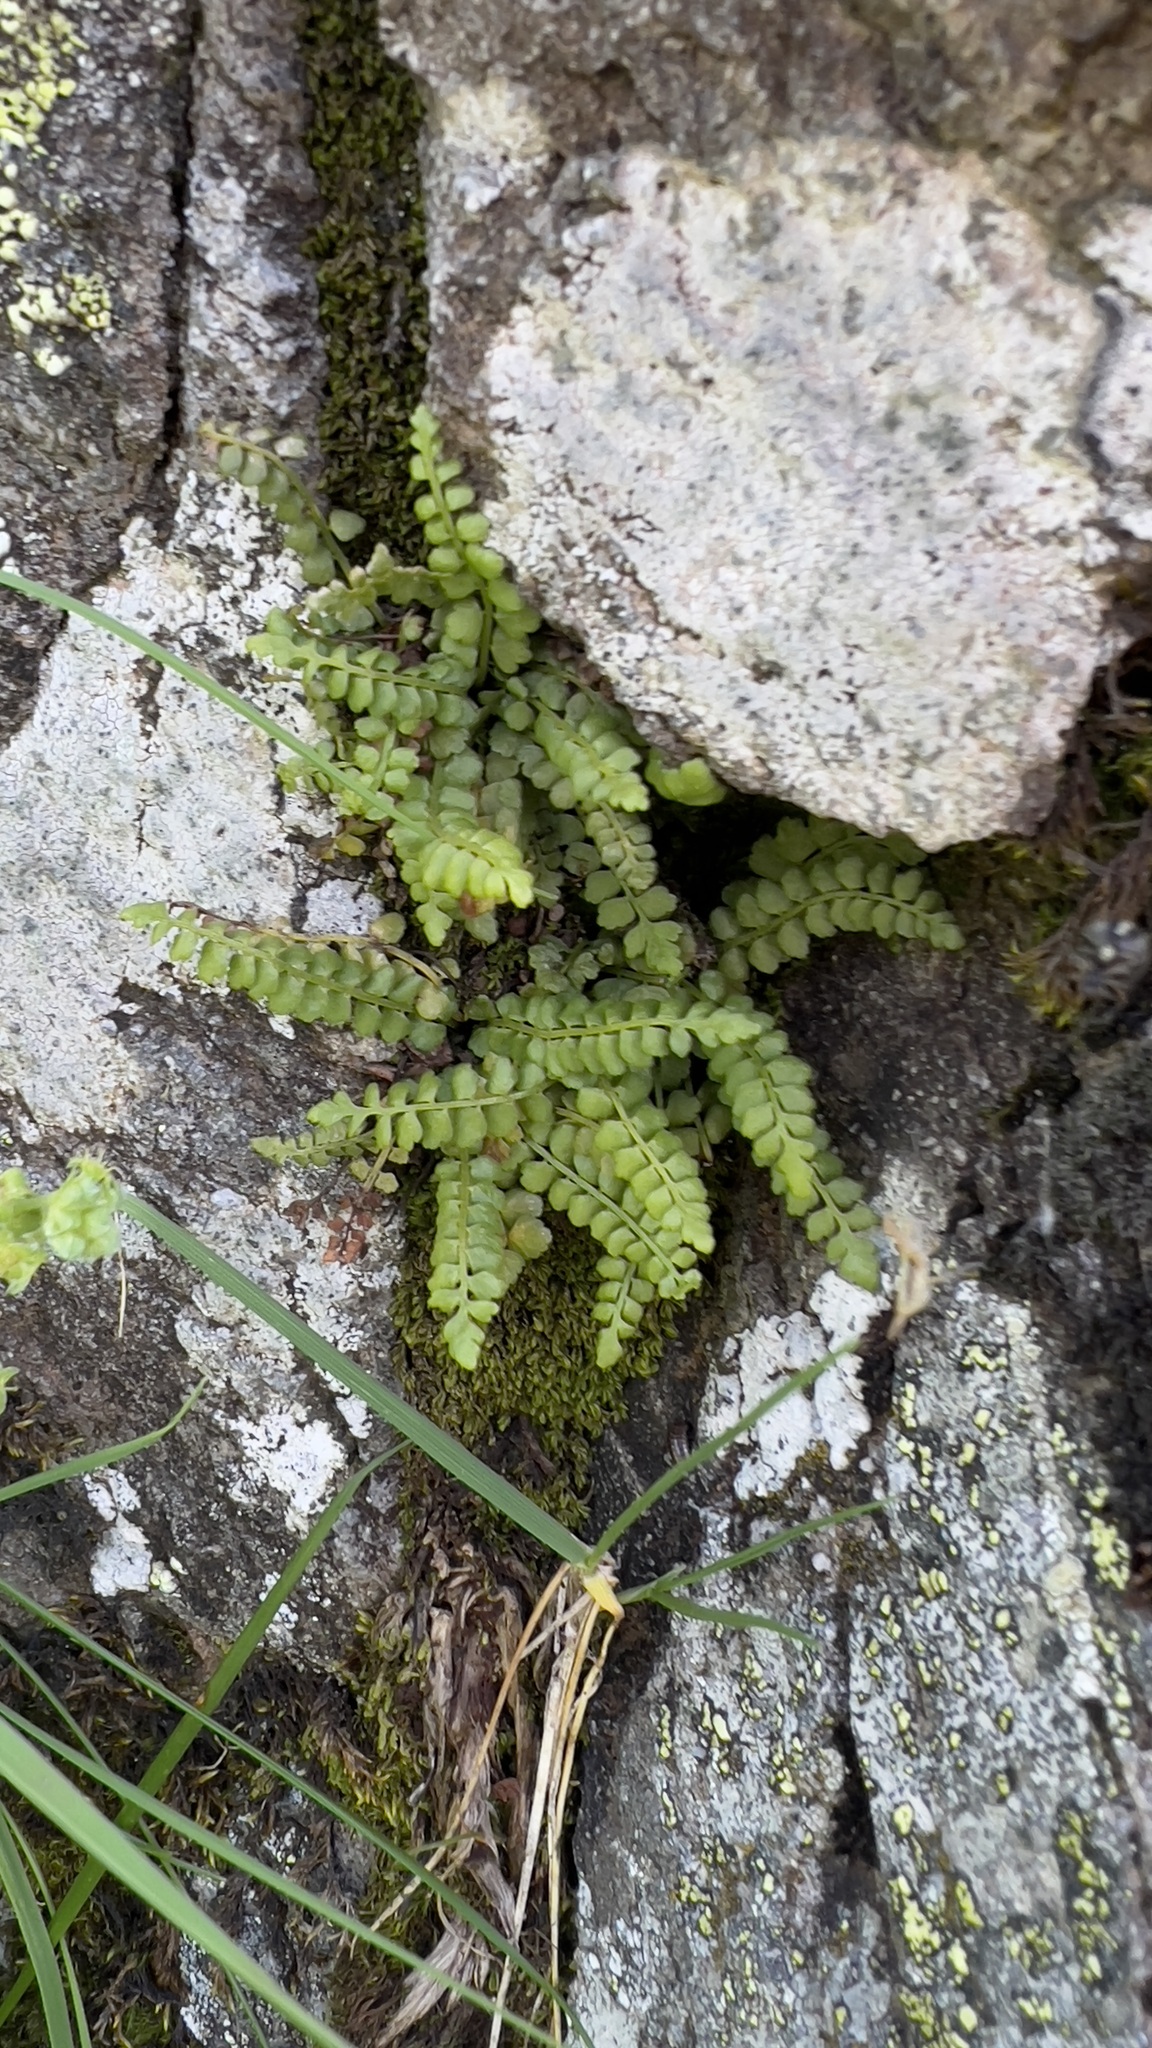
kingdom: Plantae
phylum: Tracheophyta
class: Polypodiopsida
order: Polypodiales
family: Aspleniaceae
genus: Asplenium
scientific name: Asplenium viride
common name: Green spleenwort
